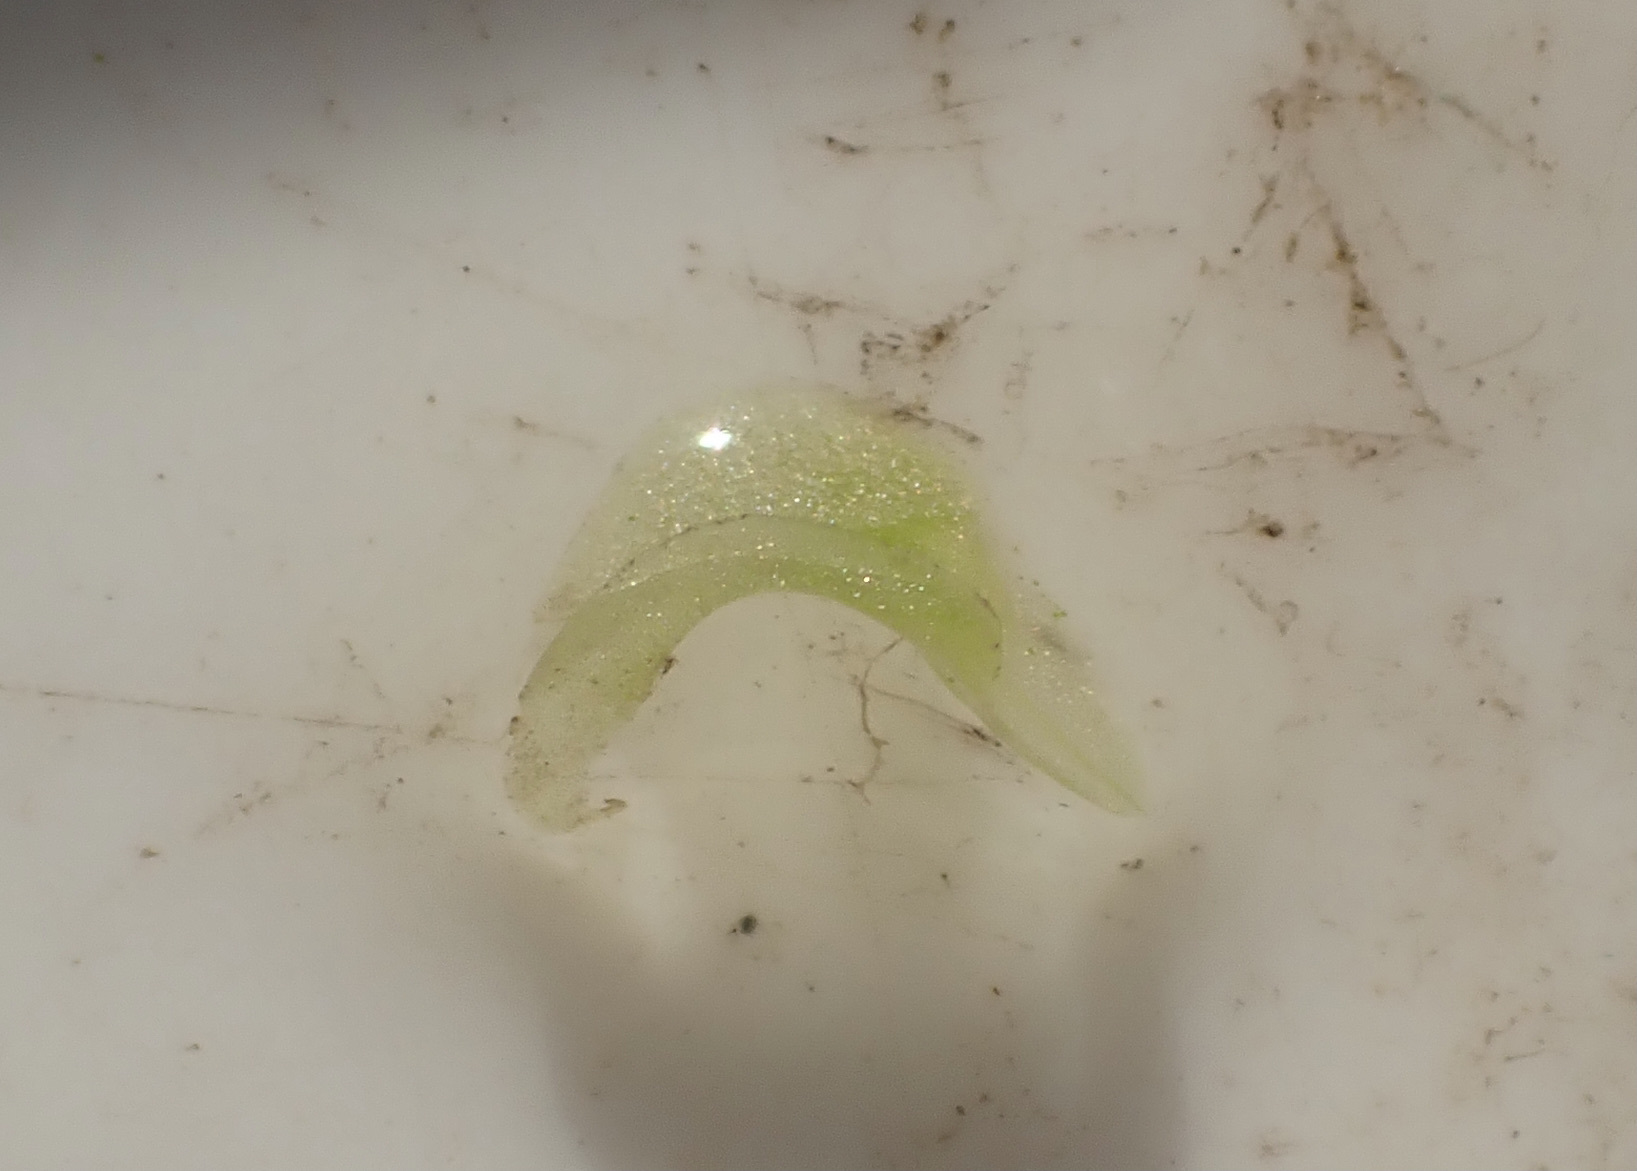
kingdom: Plantae
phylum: Tracheophyta
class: Liliopsida
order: Alismatales
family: Araceae
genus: Wolffiella
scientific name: Wolffiella welwitschii
